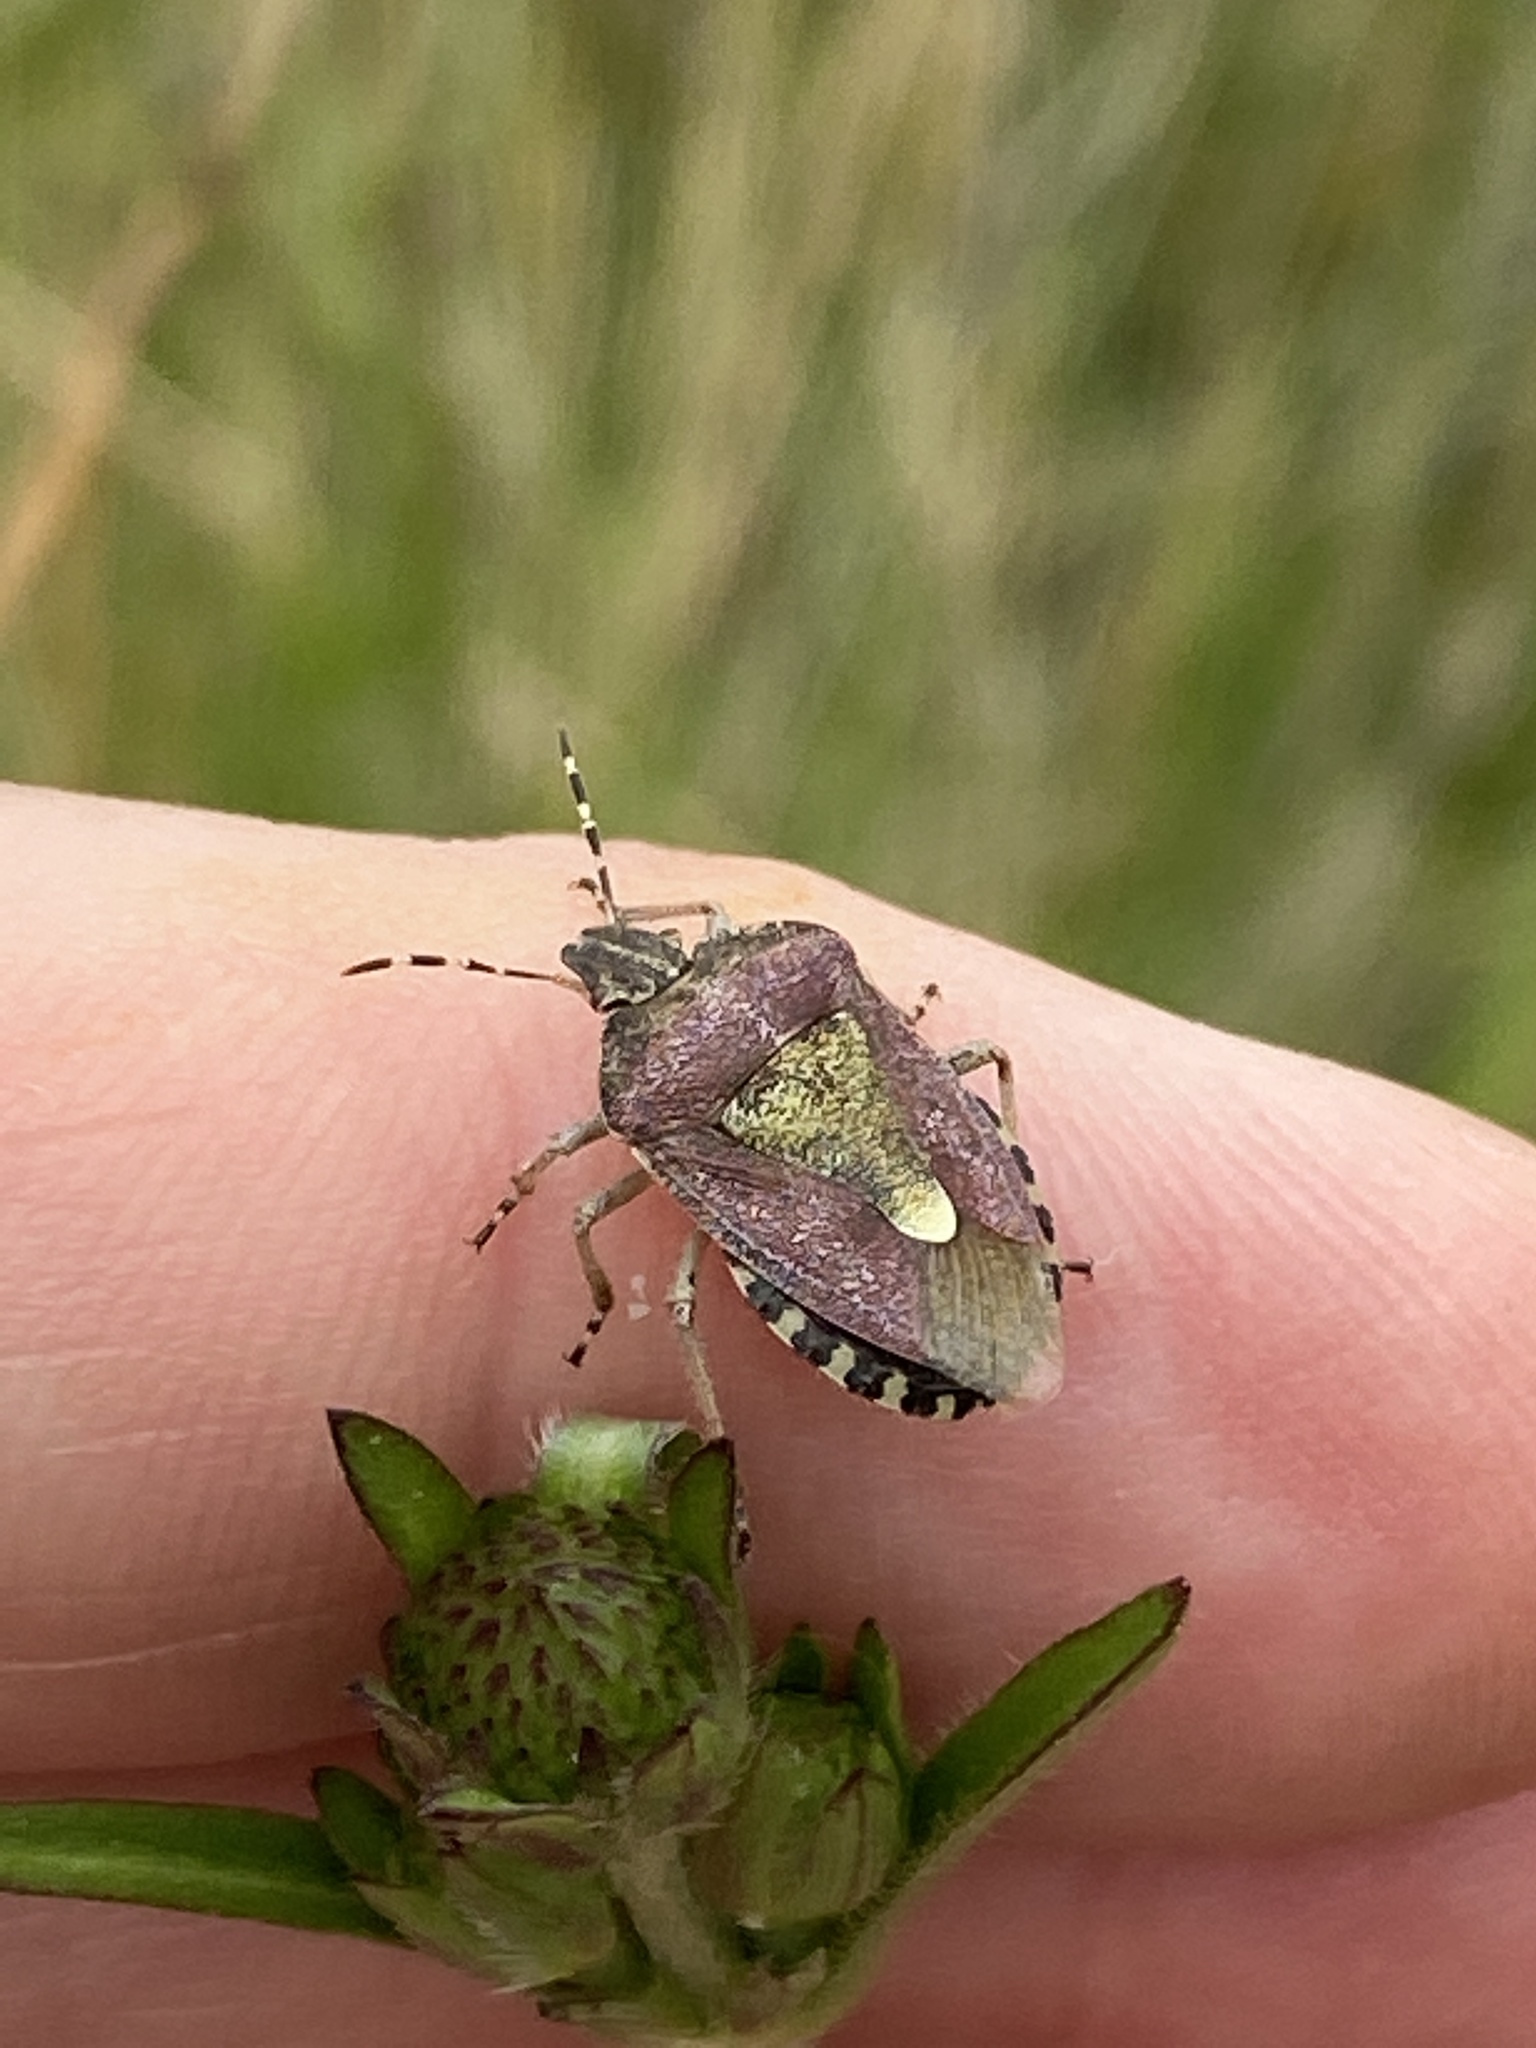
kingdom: Animalia
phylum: Arthropoda
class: Insecta
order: Hemiptera
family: Pentatomidae
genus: Dolycoris
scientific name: Dolycoris baccarum
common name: Sloe bug
